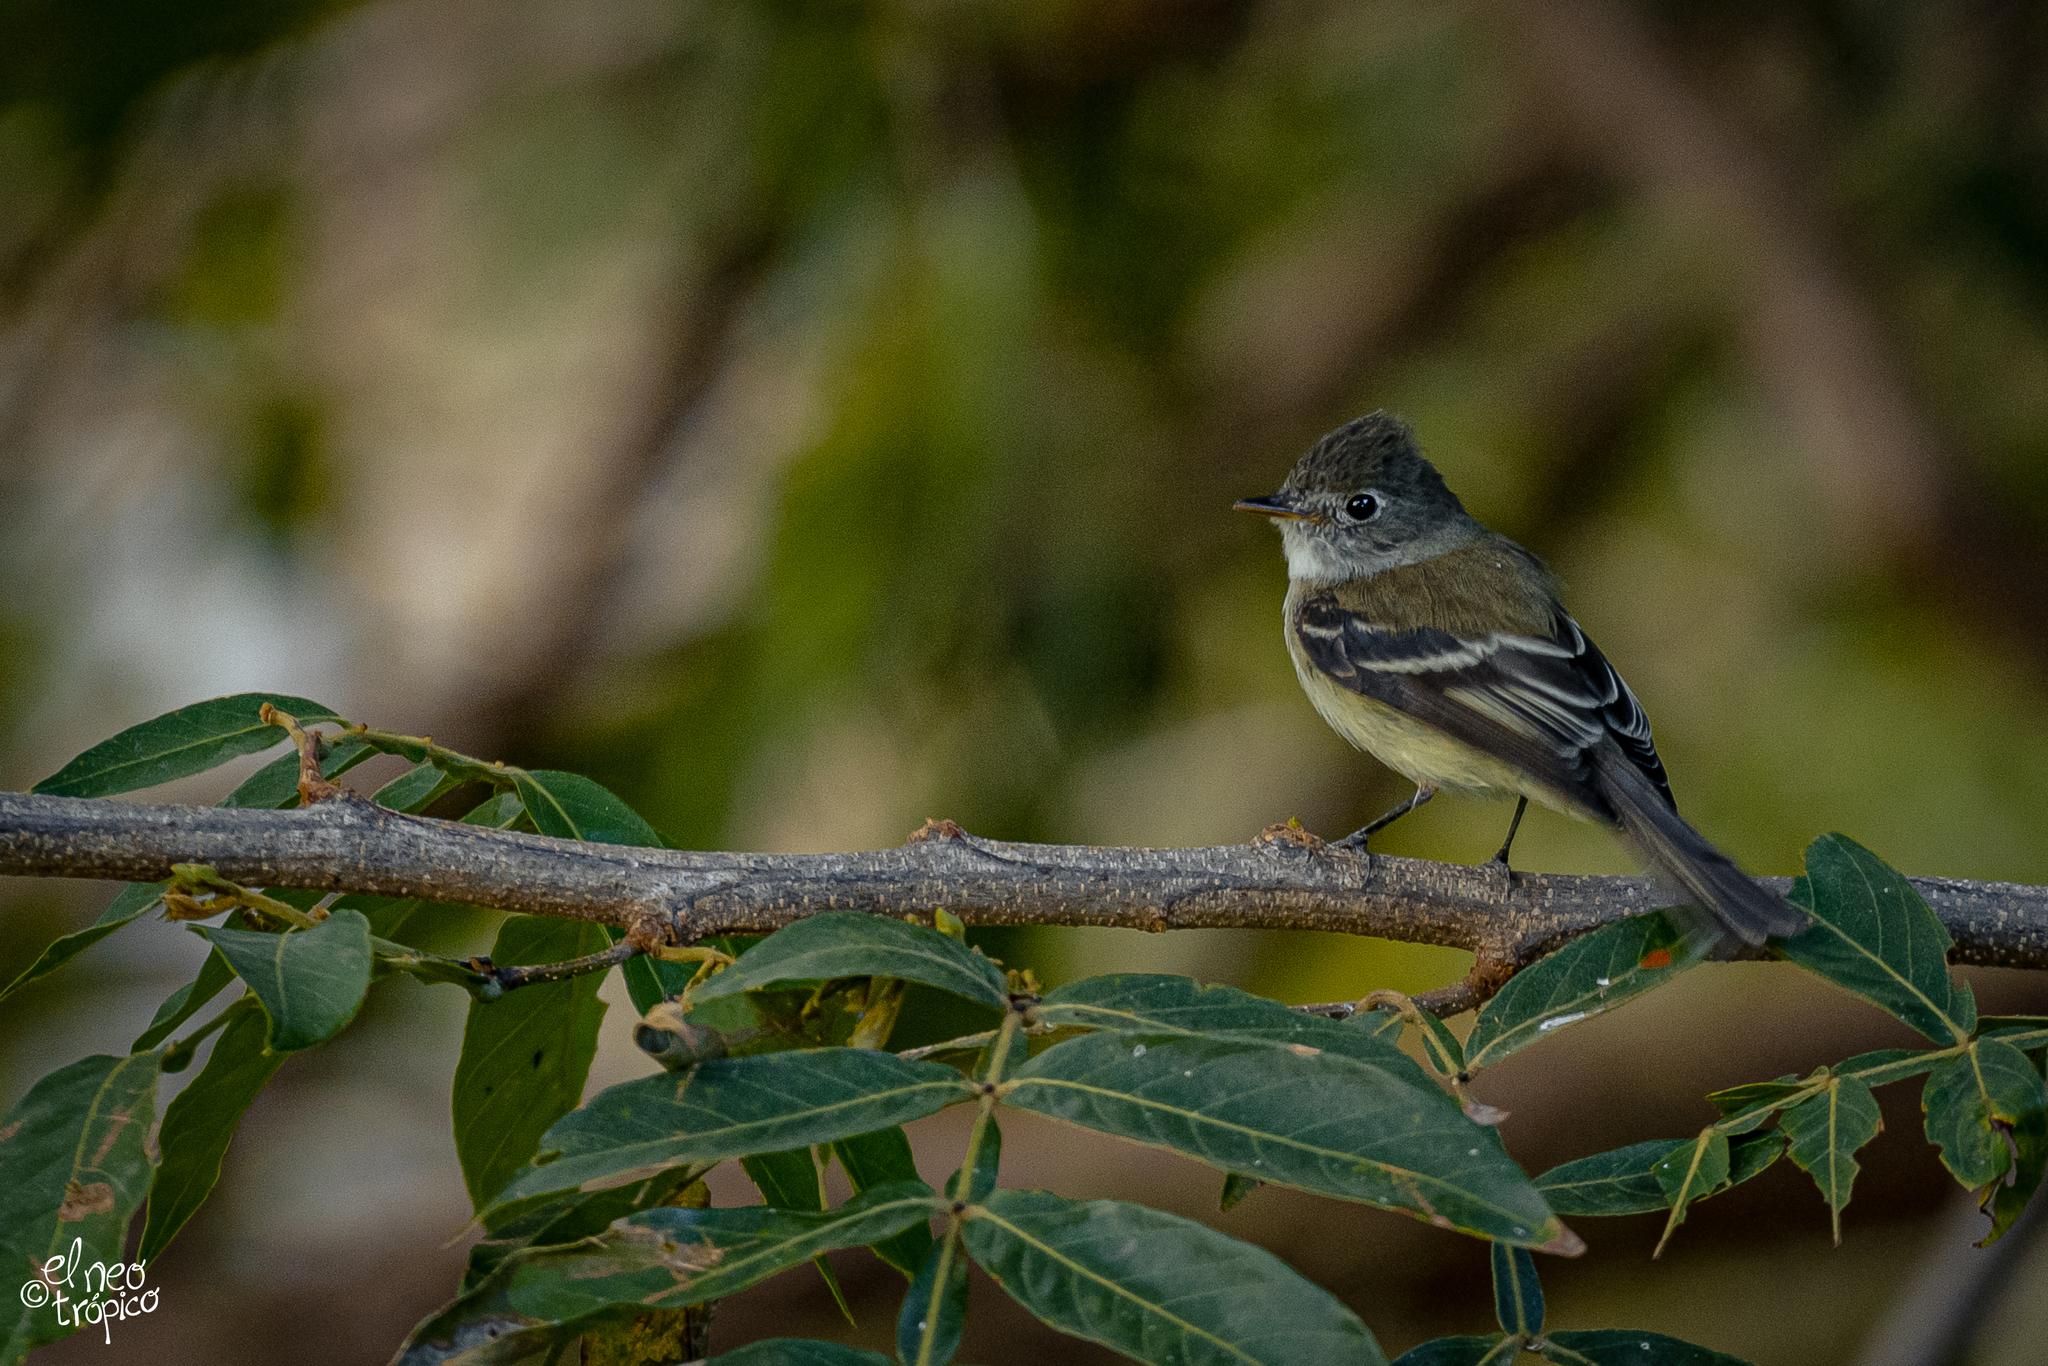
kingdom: Animalia
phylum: Chordata
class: Aves
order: Passeriformes
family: Tyrannidae
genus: Empidonax
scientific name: Empidonax minimus
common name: Least flycatcher
